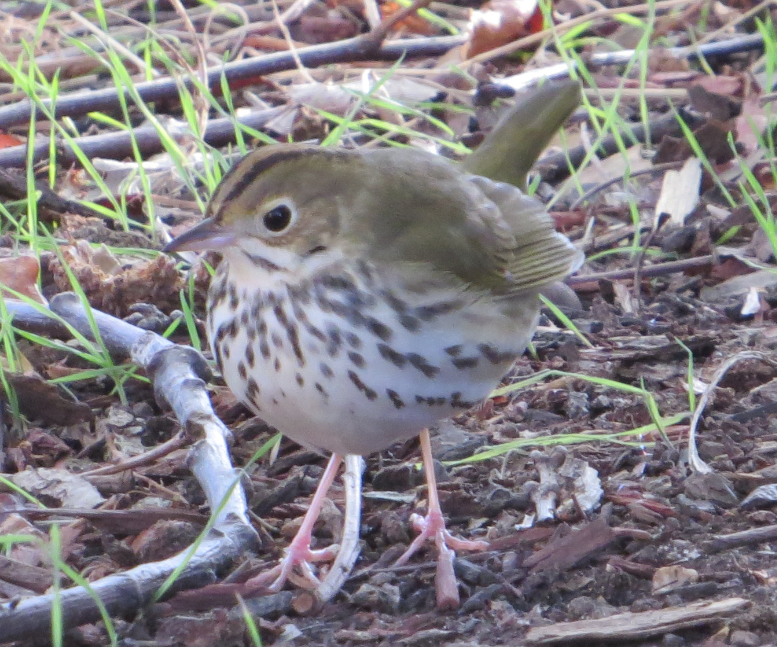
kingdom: Animalia
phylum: Chordata
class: Aves
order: Passeriformes
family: Parulidae
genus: Seiurus
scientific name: Seiurus aurocapilla
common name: Ovenbird
